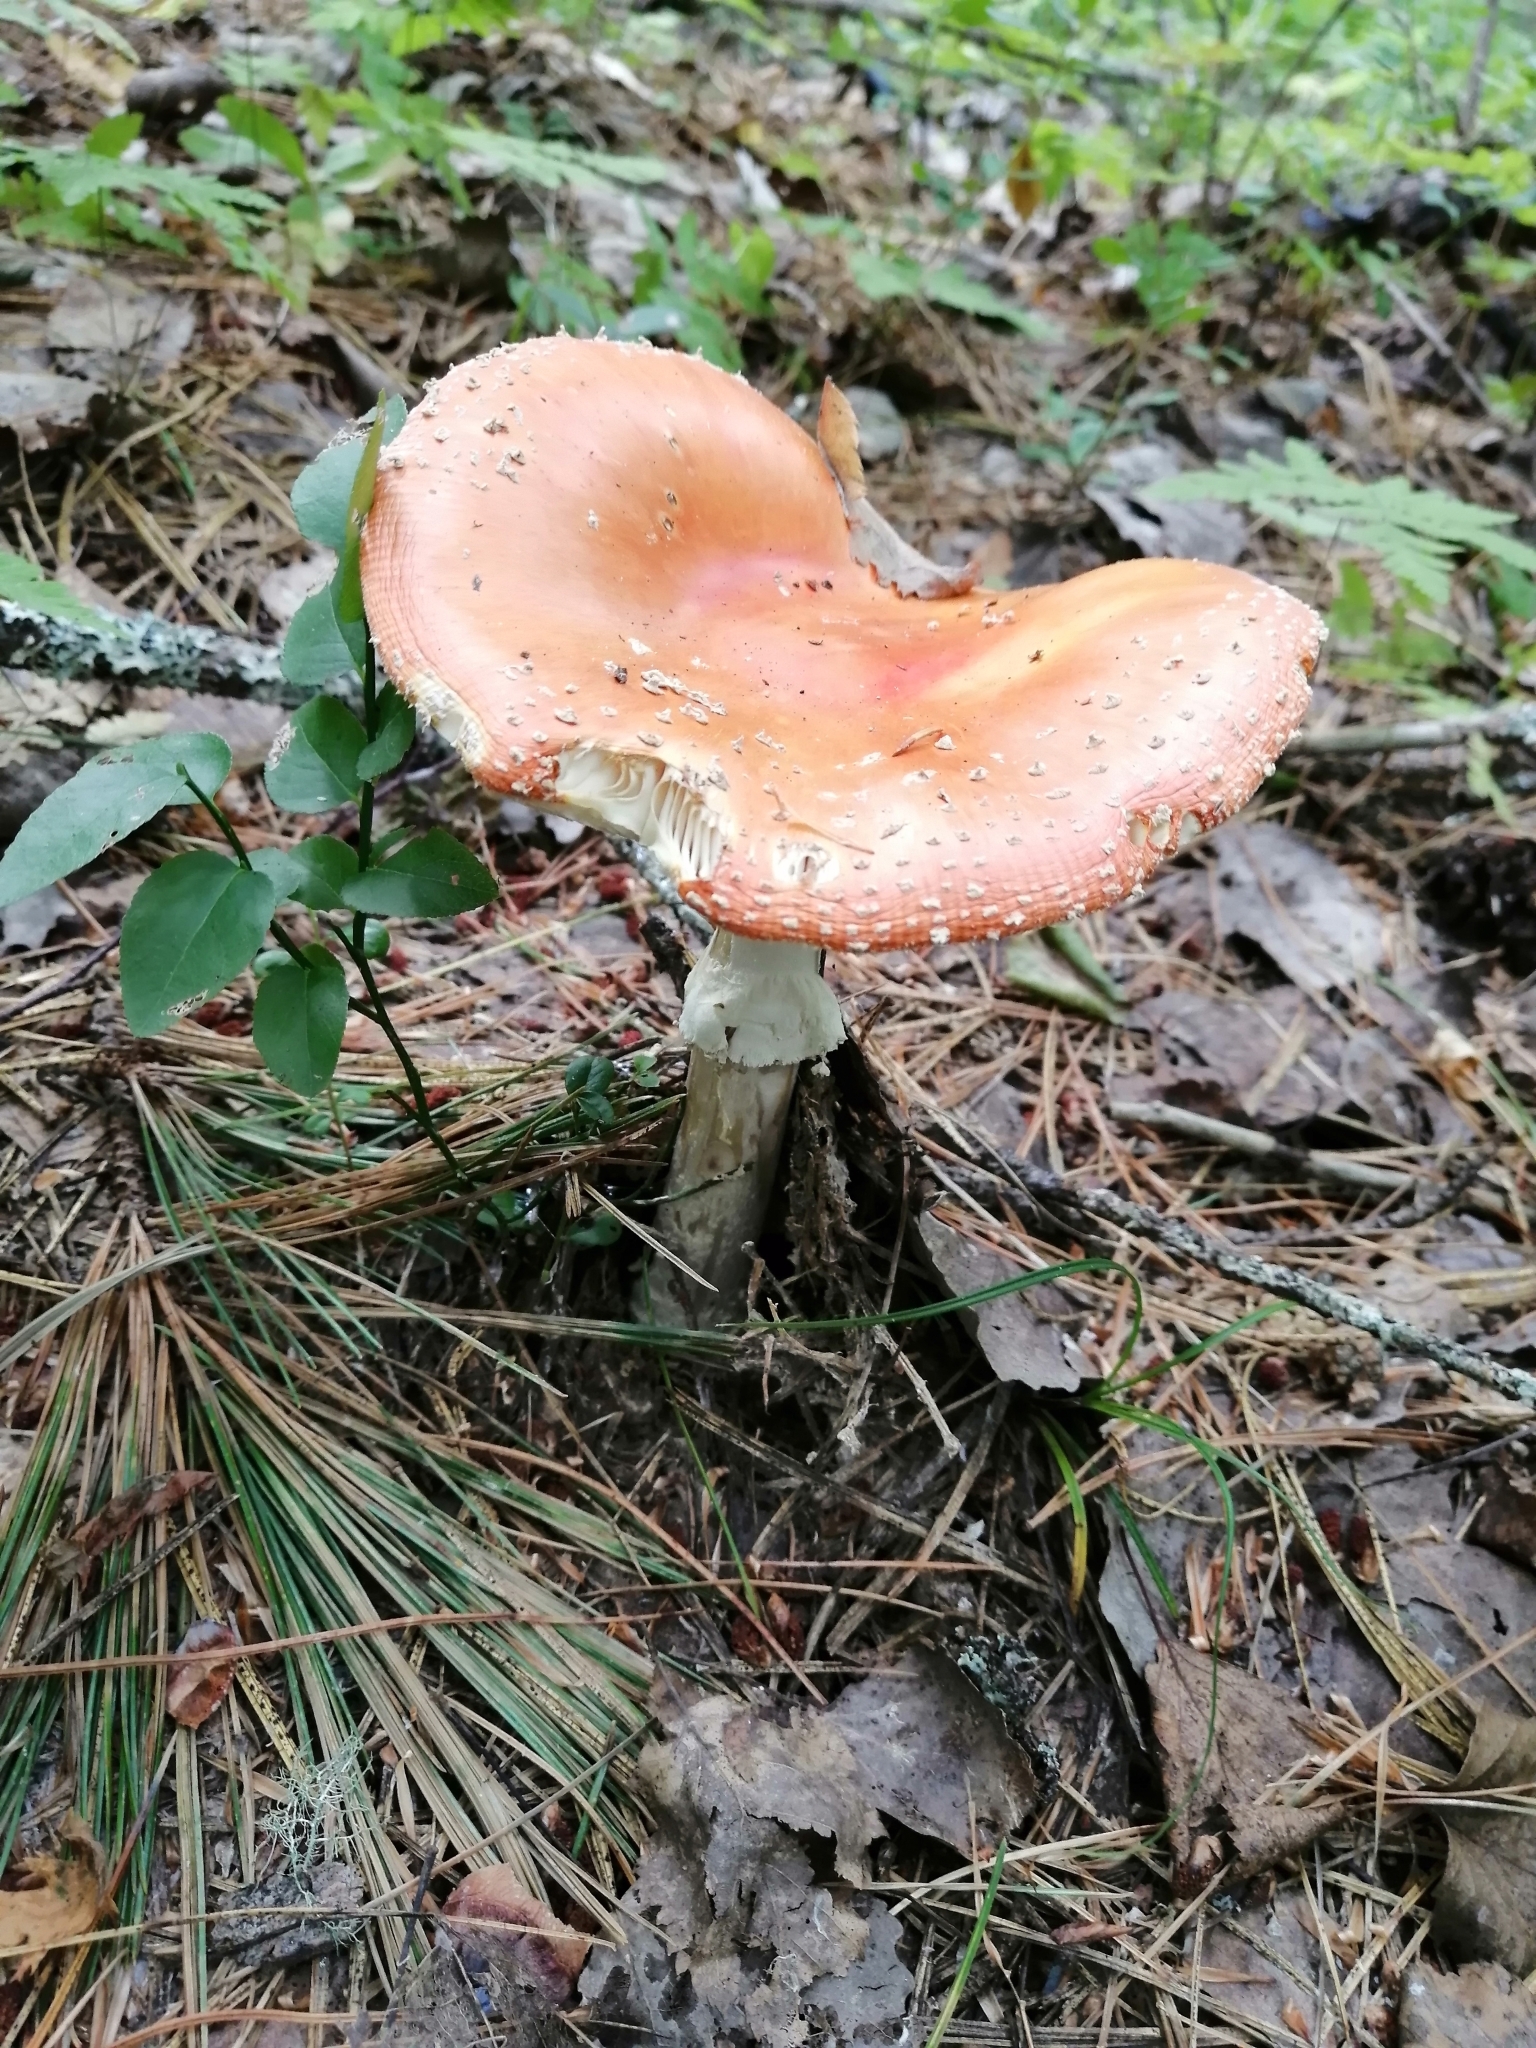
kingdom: Fungi
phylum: Basidiomycota
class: Agaricomycetes
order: Agaricales
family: Amanitaceae
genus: Amanita
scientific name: Amanita muscaria
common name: Fly agaric
